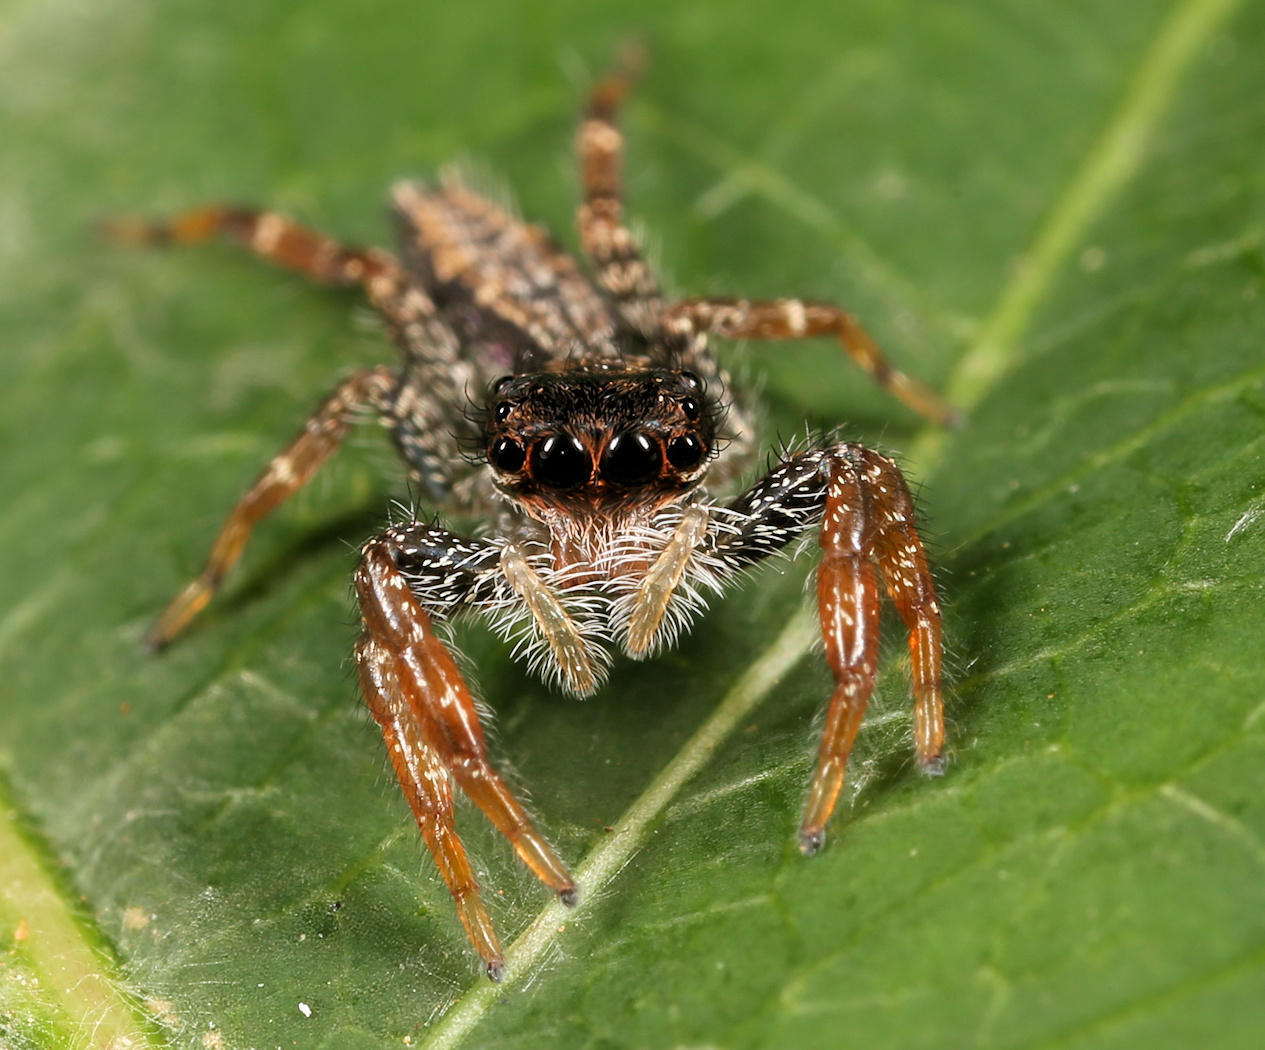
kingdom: Animalia
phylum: Arthropoda
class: Arachnida
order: Araneae
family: Salticidae
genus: Holcolaetis
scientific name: Holcolaetis zuluensis
